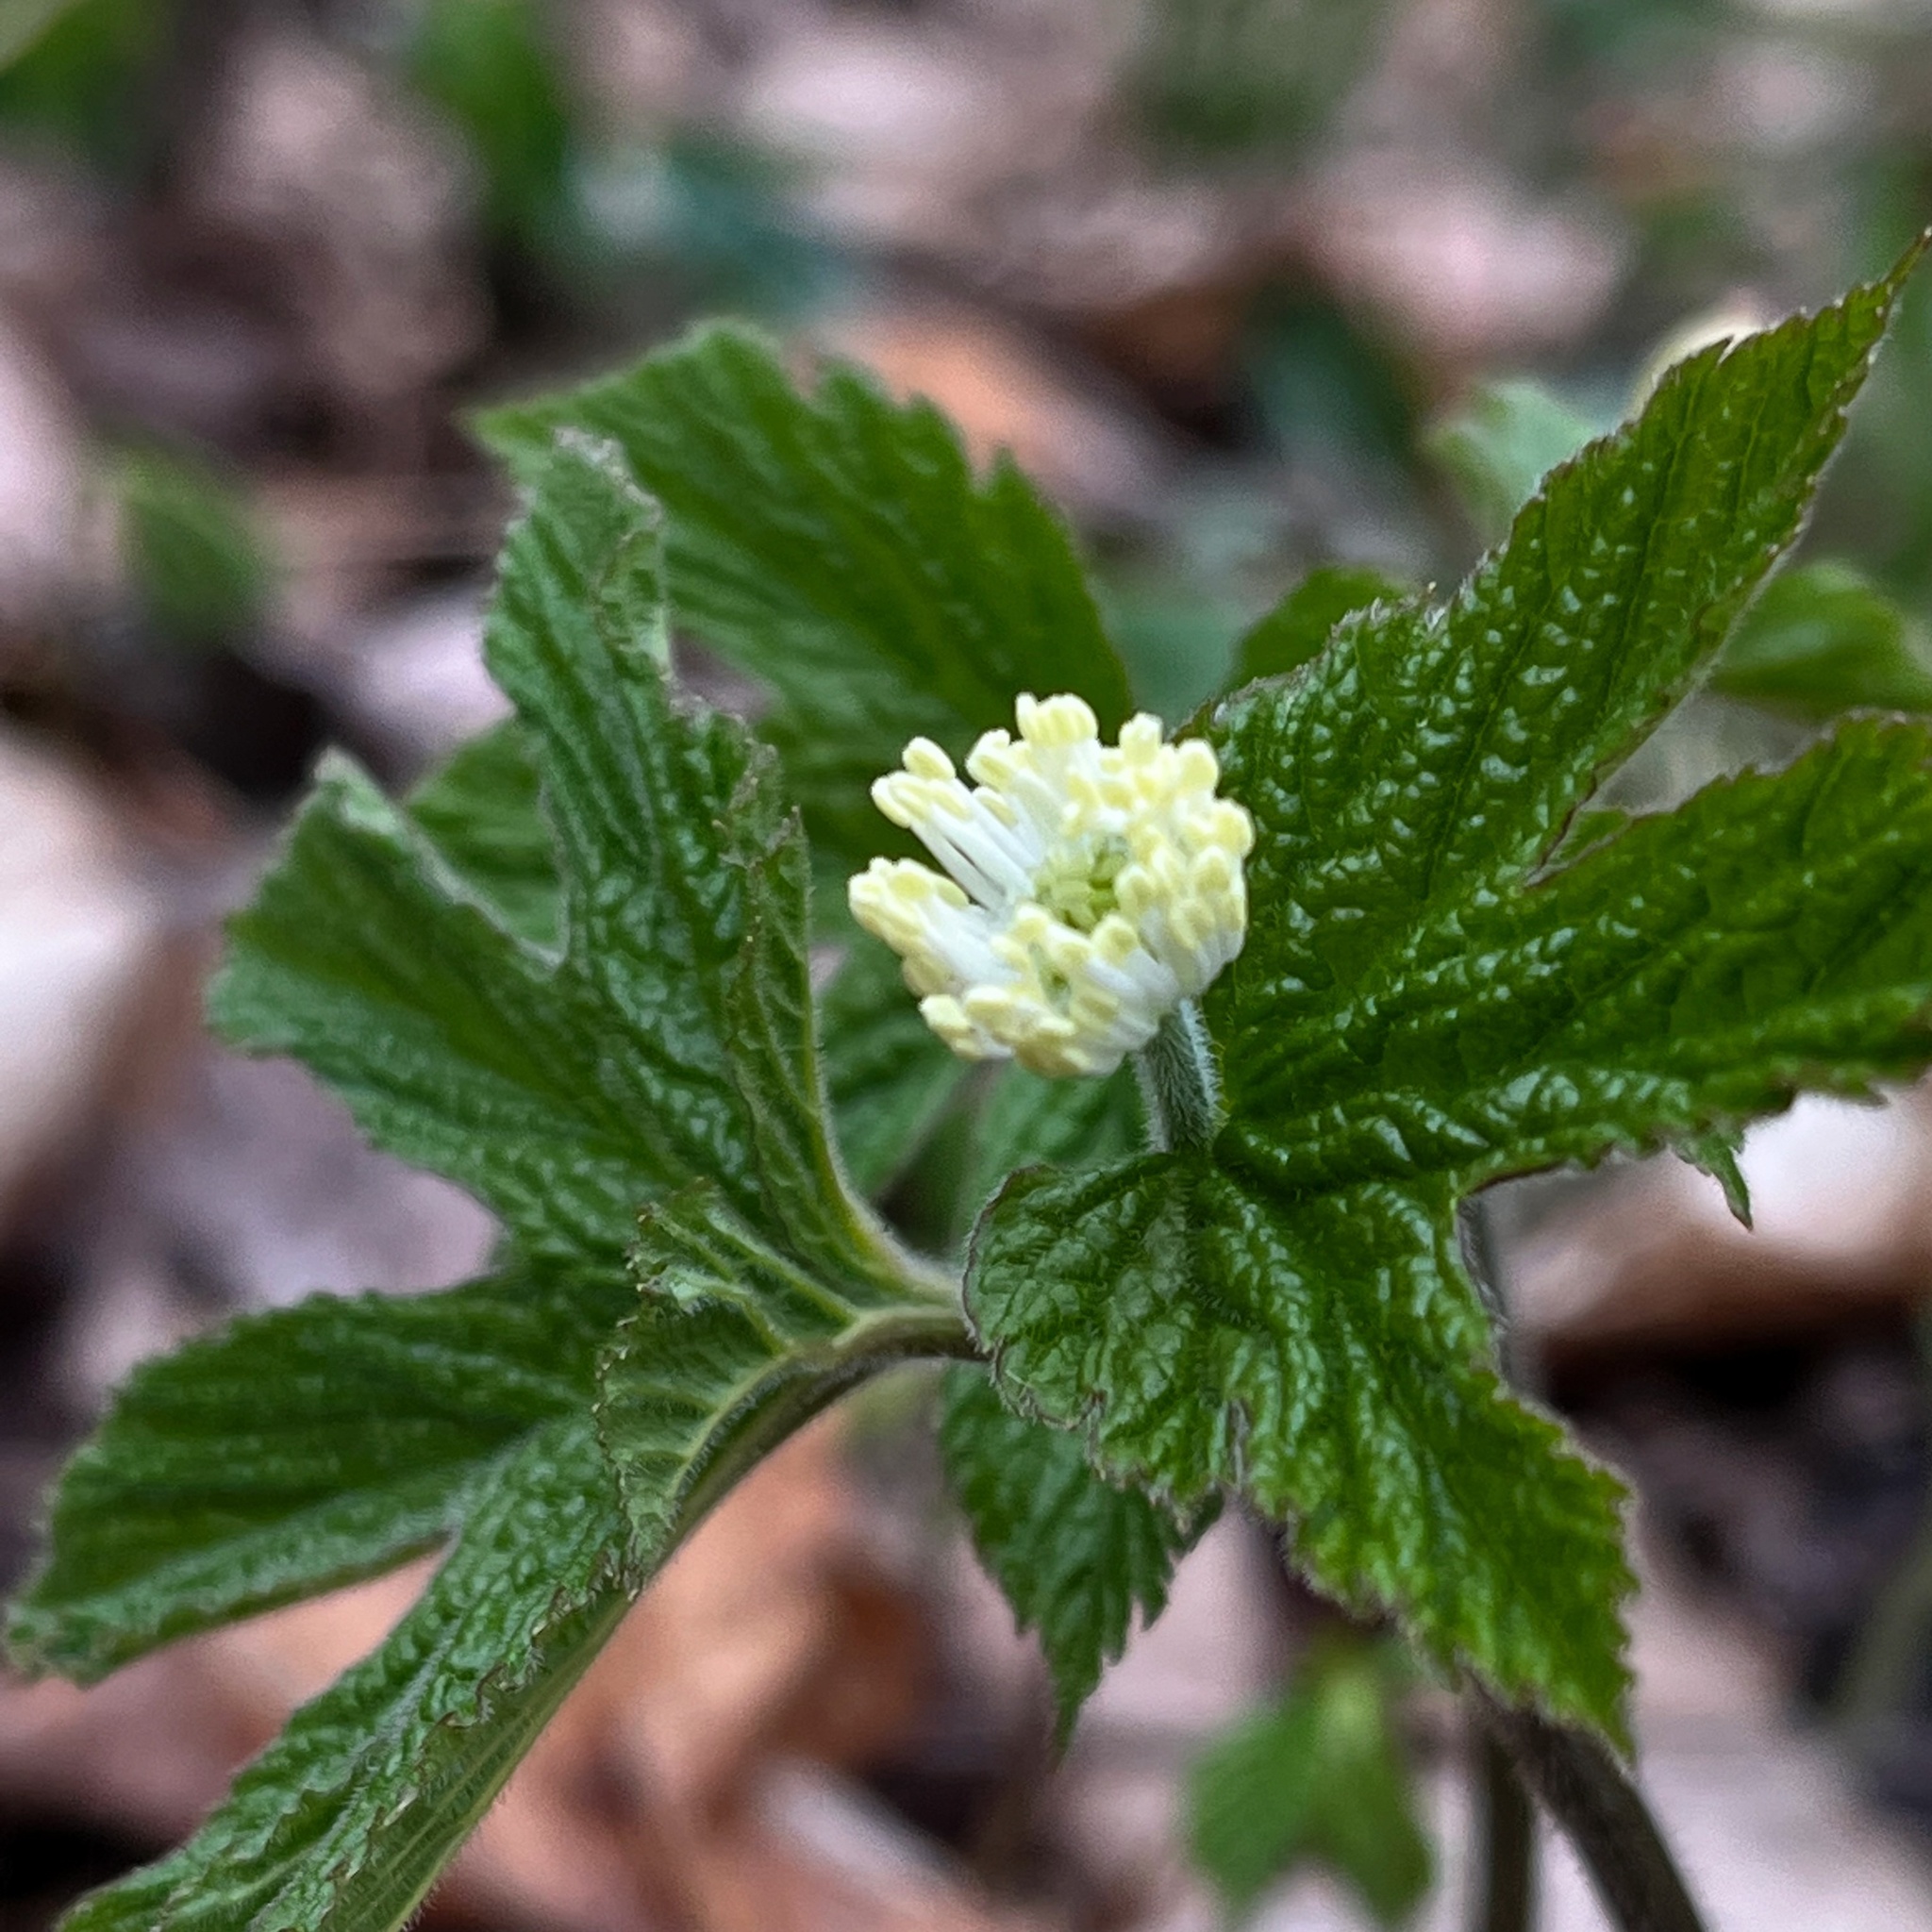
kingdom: Plantae
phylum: Tracheophyta
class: Magnoliopsida
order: Ranunculales
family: Ranunculaceae
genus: Hydrastis
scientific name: Hydrastis canadensis
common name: Goldenseal
